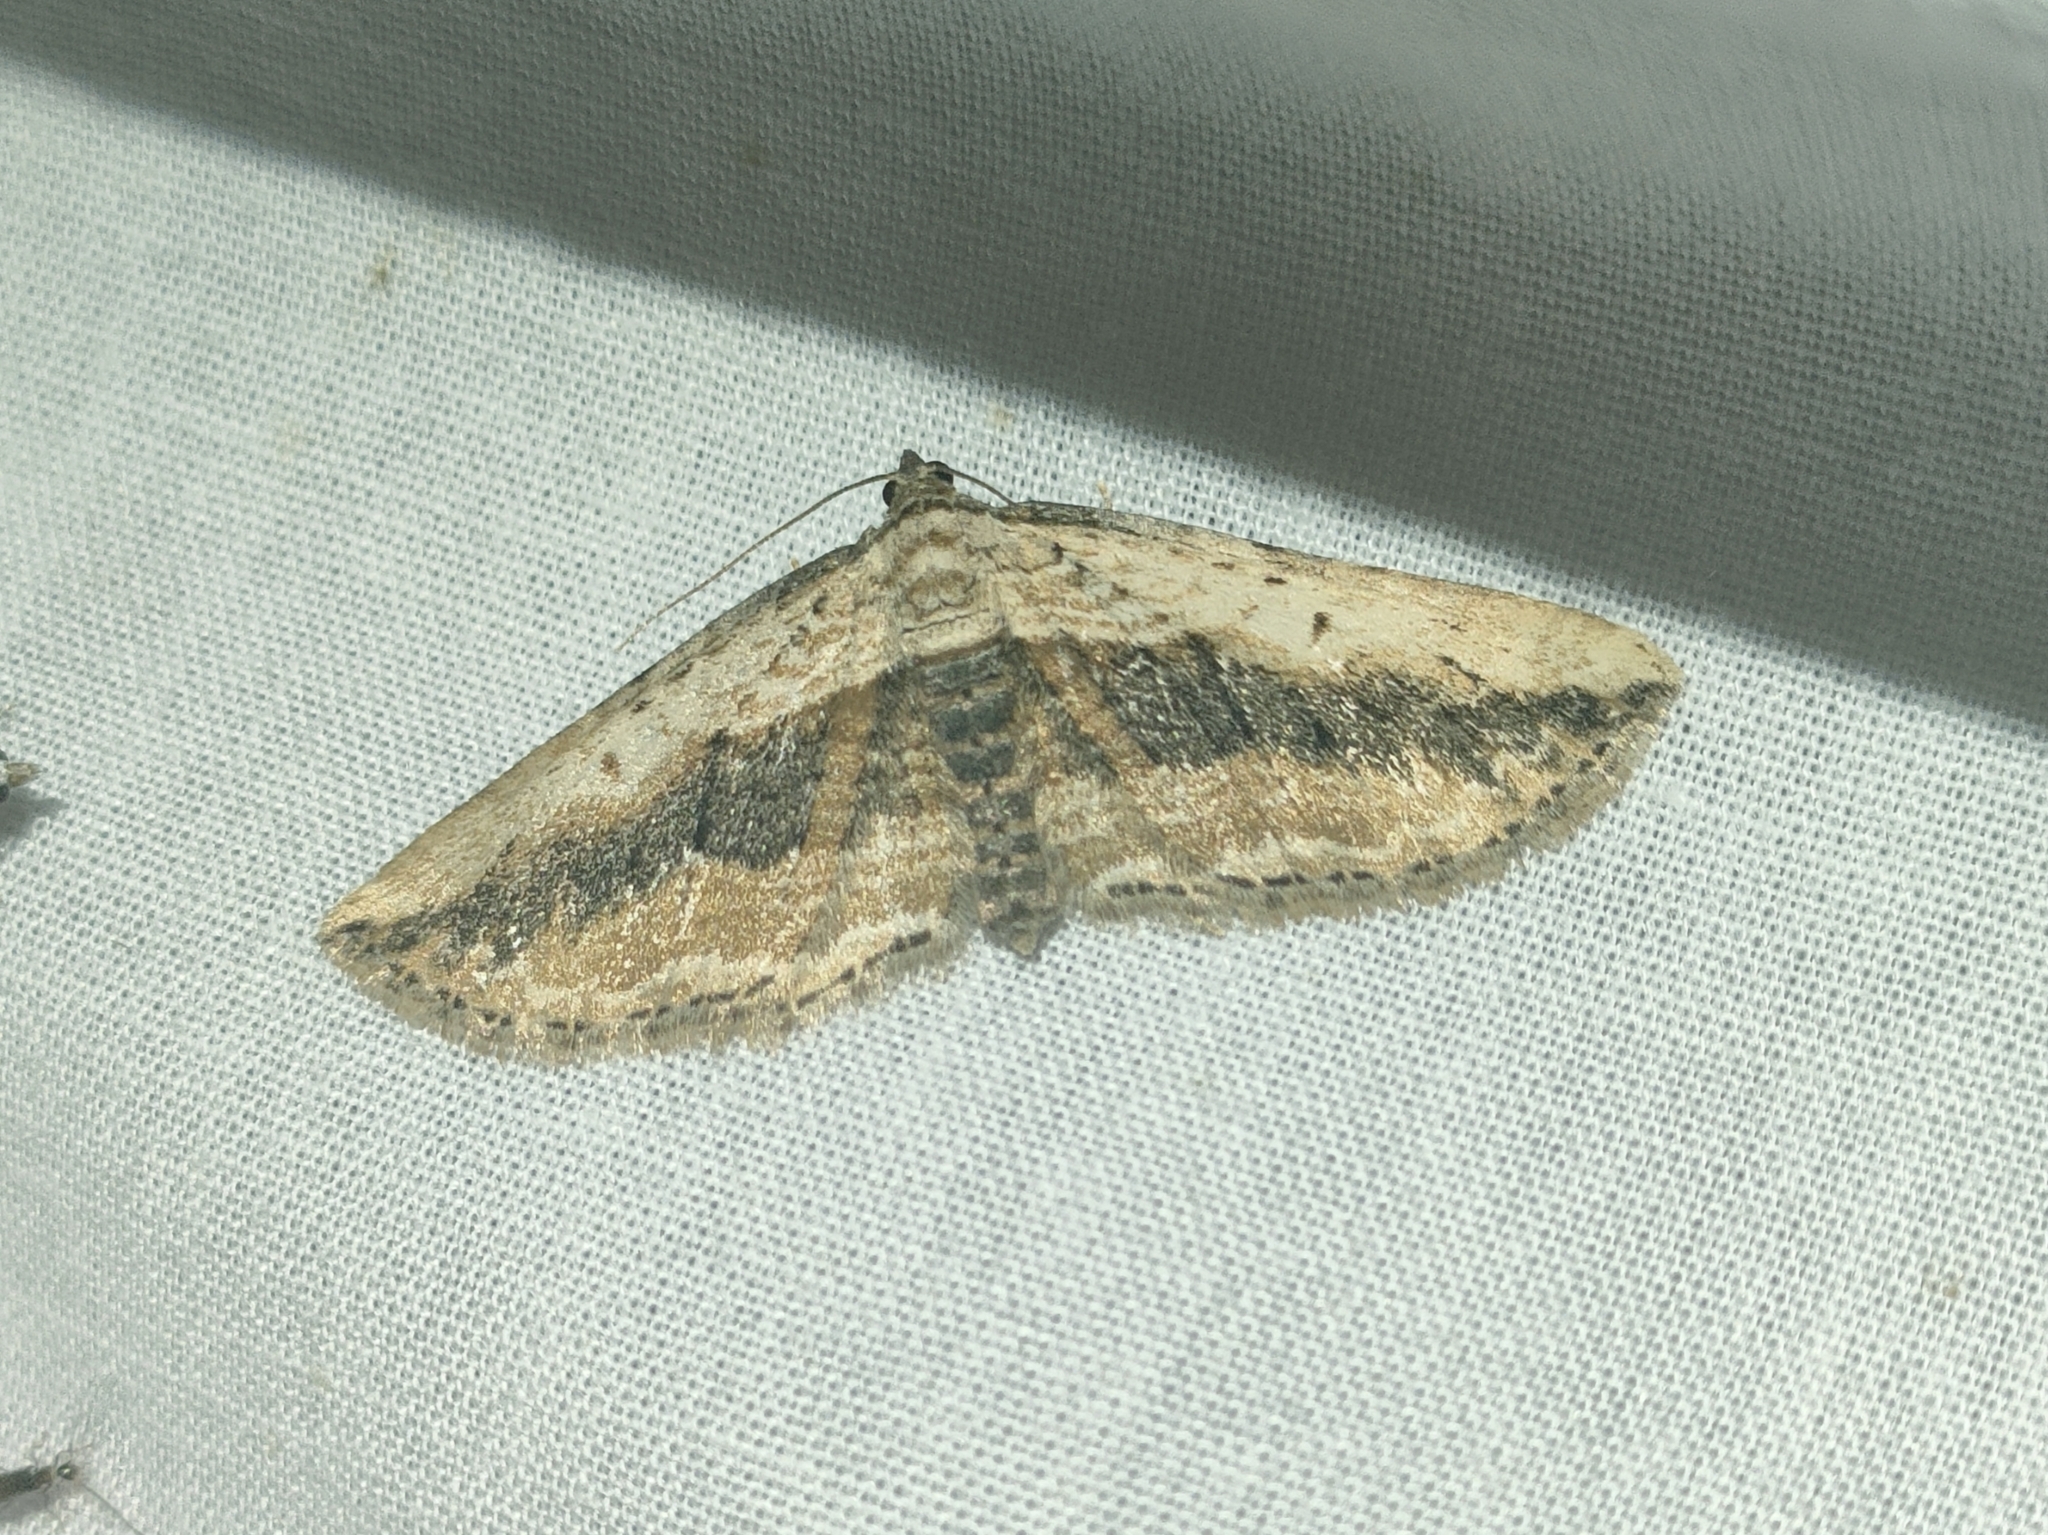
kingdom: Animalia
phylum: Arthropoda
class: Insecta
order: Lepidoptera
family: Geometridae
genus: Horisme
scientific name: Horisme vitalbata
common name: Small waved umber
